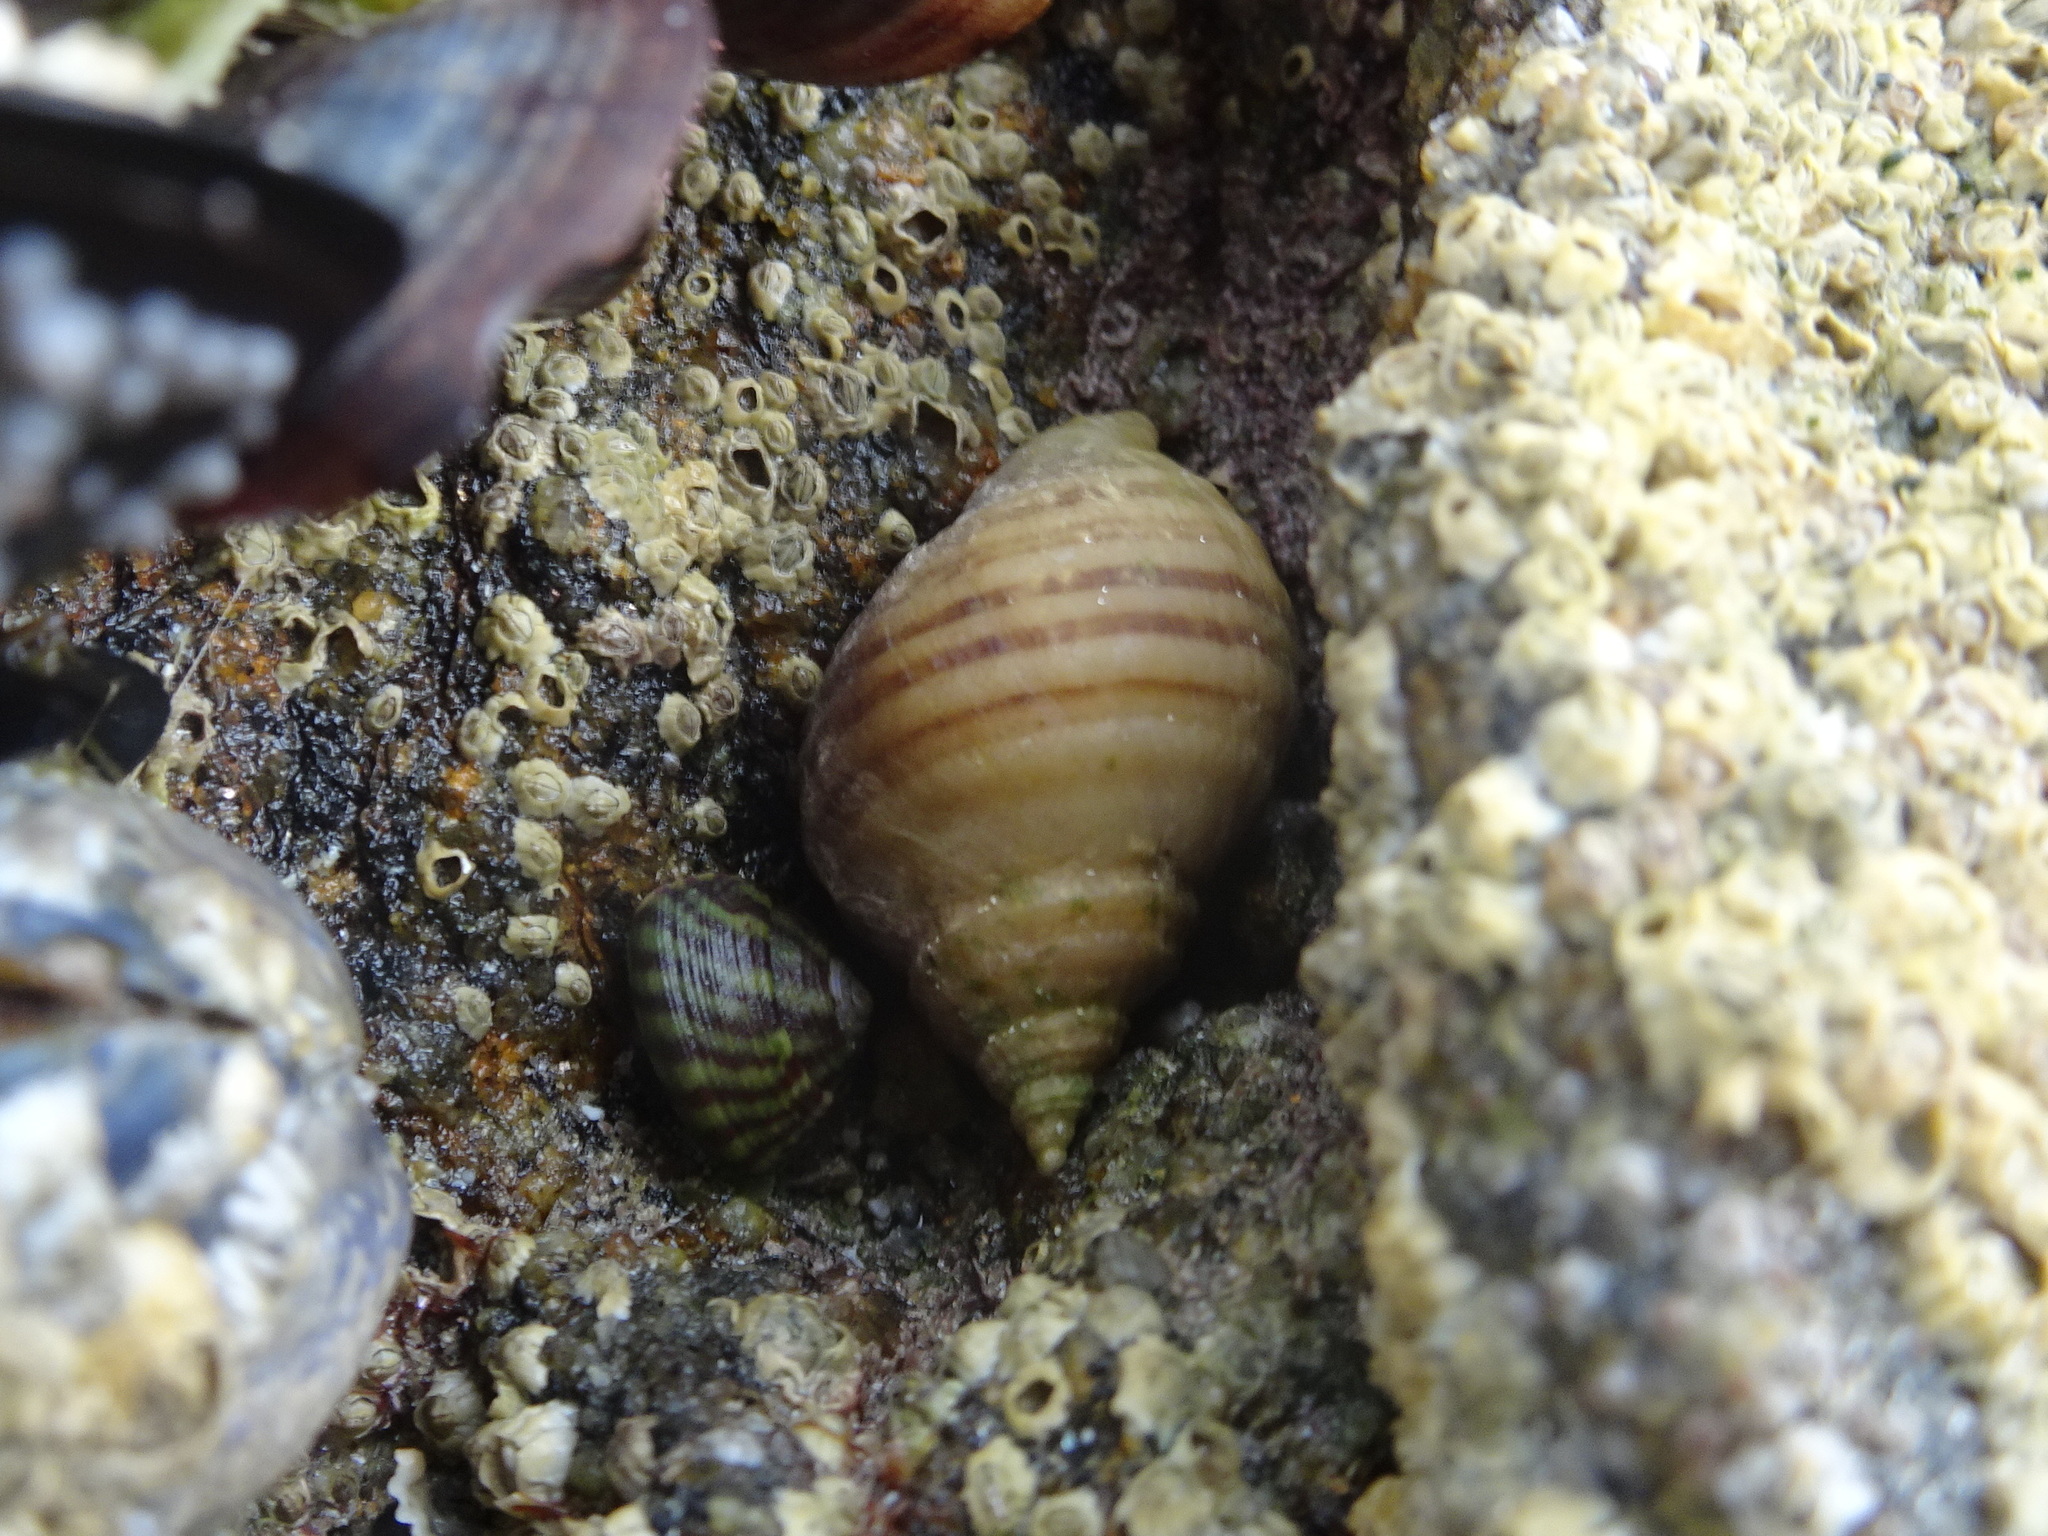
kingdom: Animalia
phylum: Mollusca
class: Gastropoda
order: Neogastropoda
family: Muricidae
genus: Nucella
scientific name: Nucella lapillus
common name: Dog whelk
